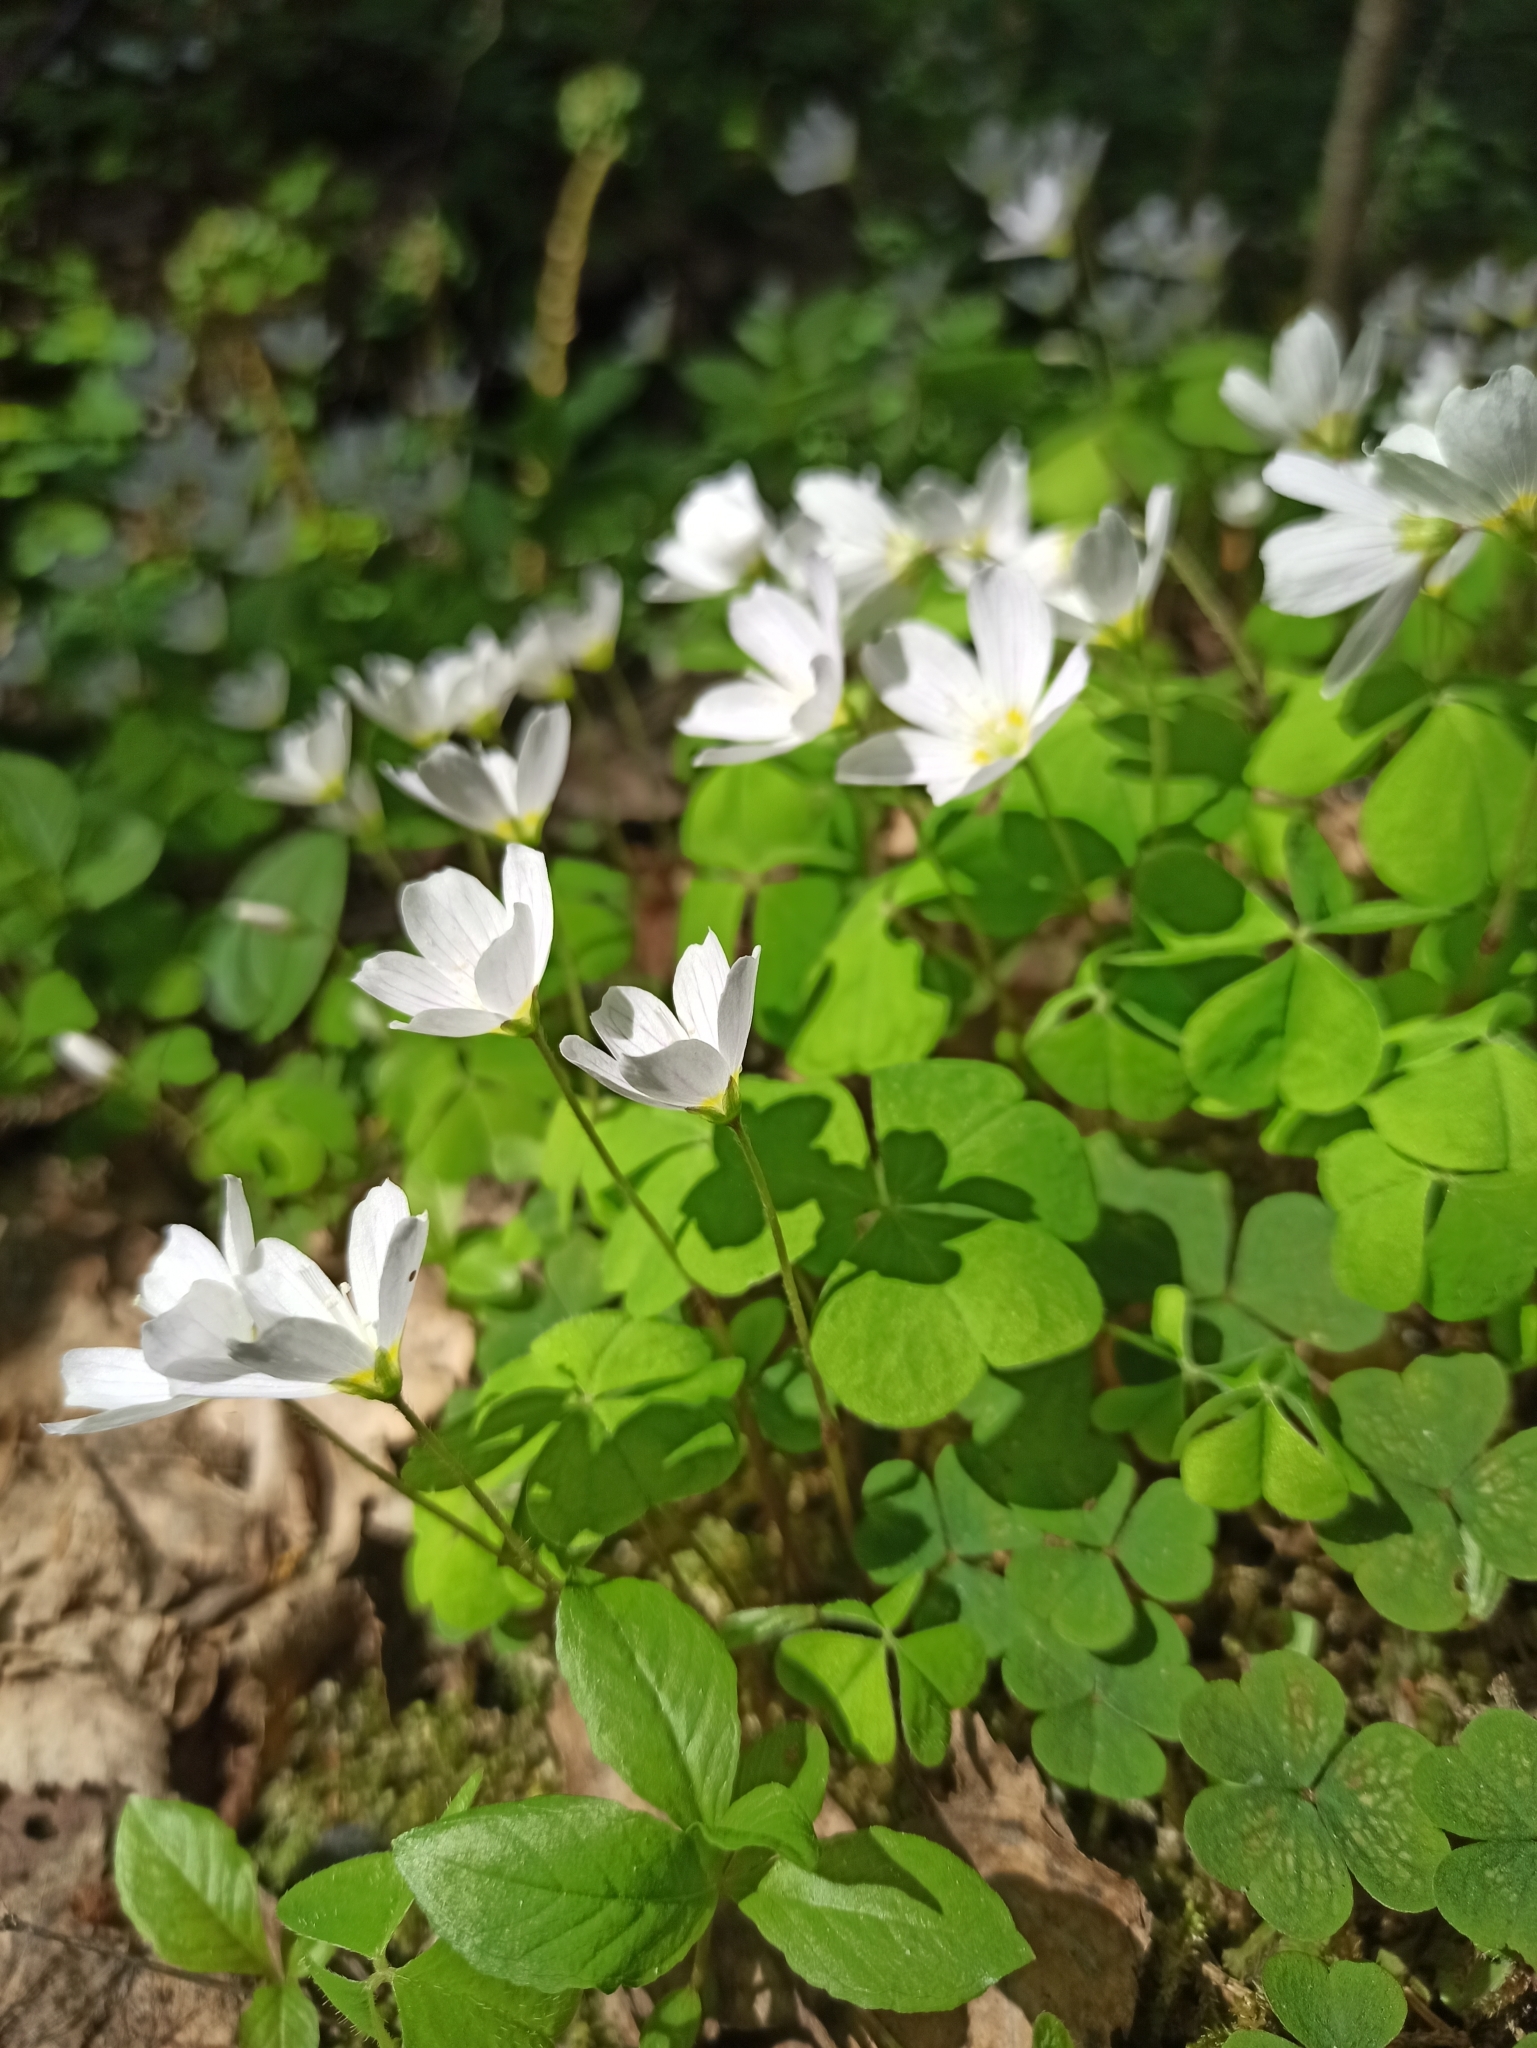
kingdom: Plantae
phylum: Tracheophyta
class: Magnoliopsida
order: Oxalidales
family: Oxalidaceae
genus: Oxalis
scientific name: Oxalis acetosella
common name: Wood-sorrel
